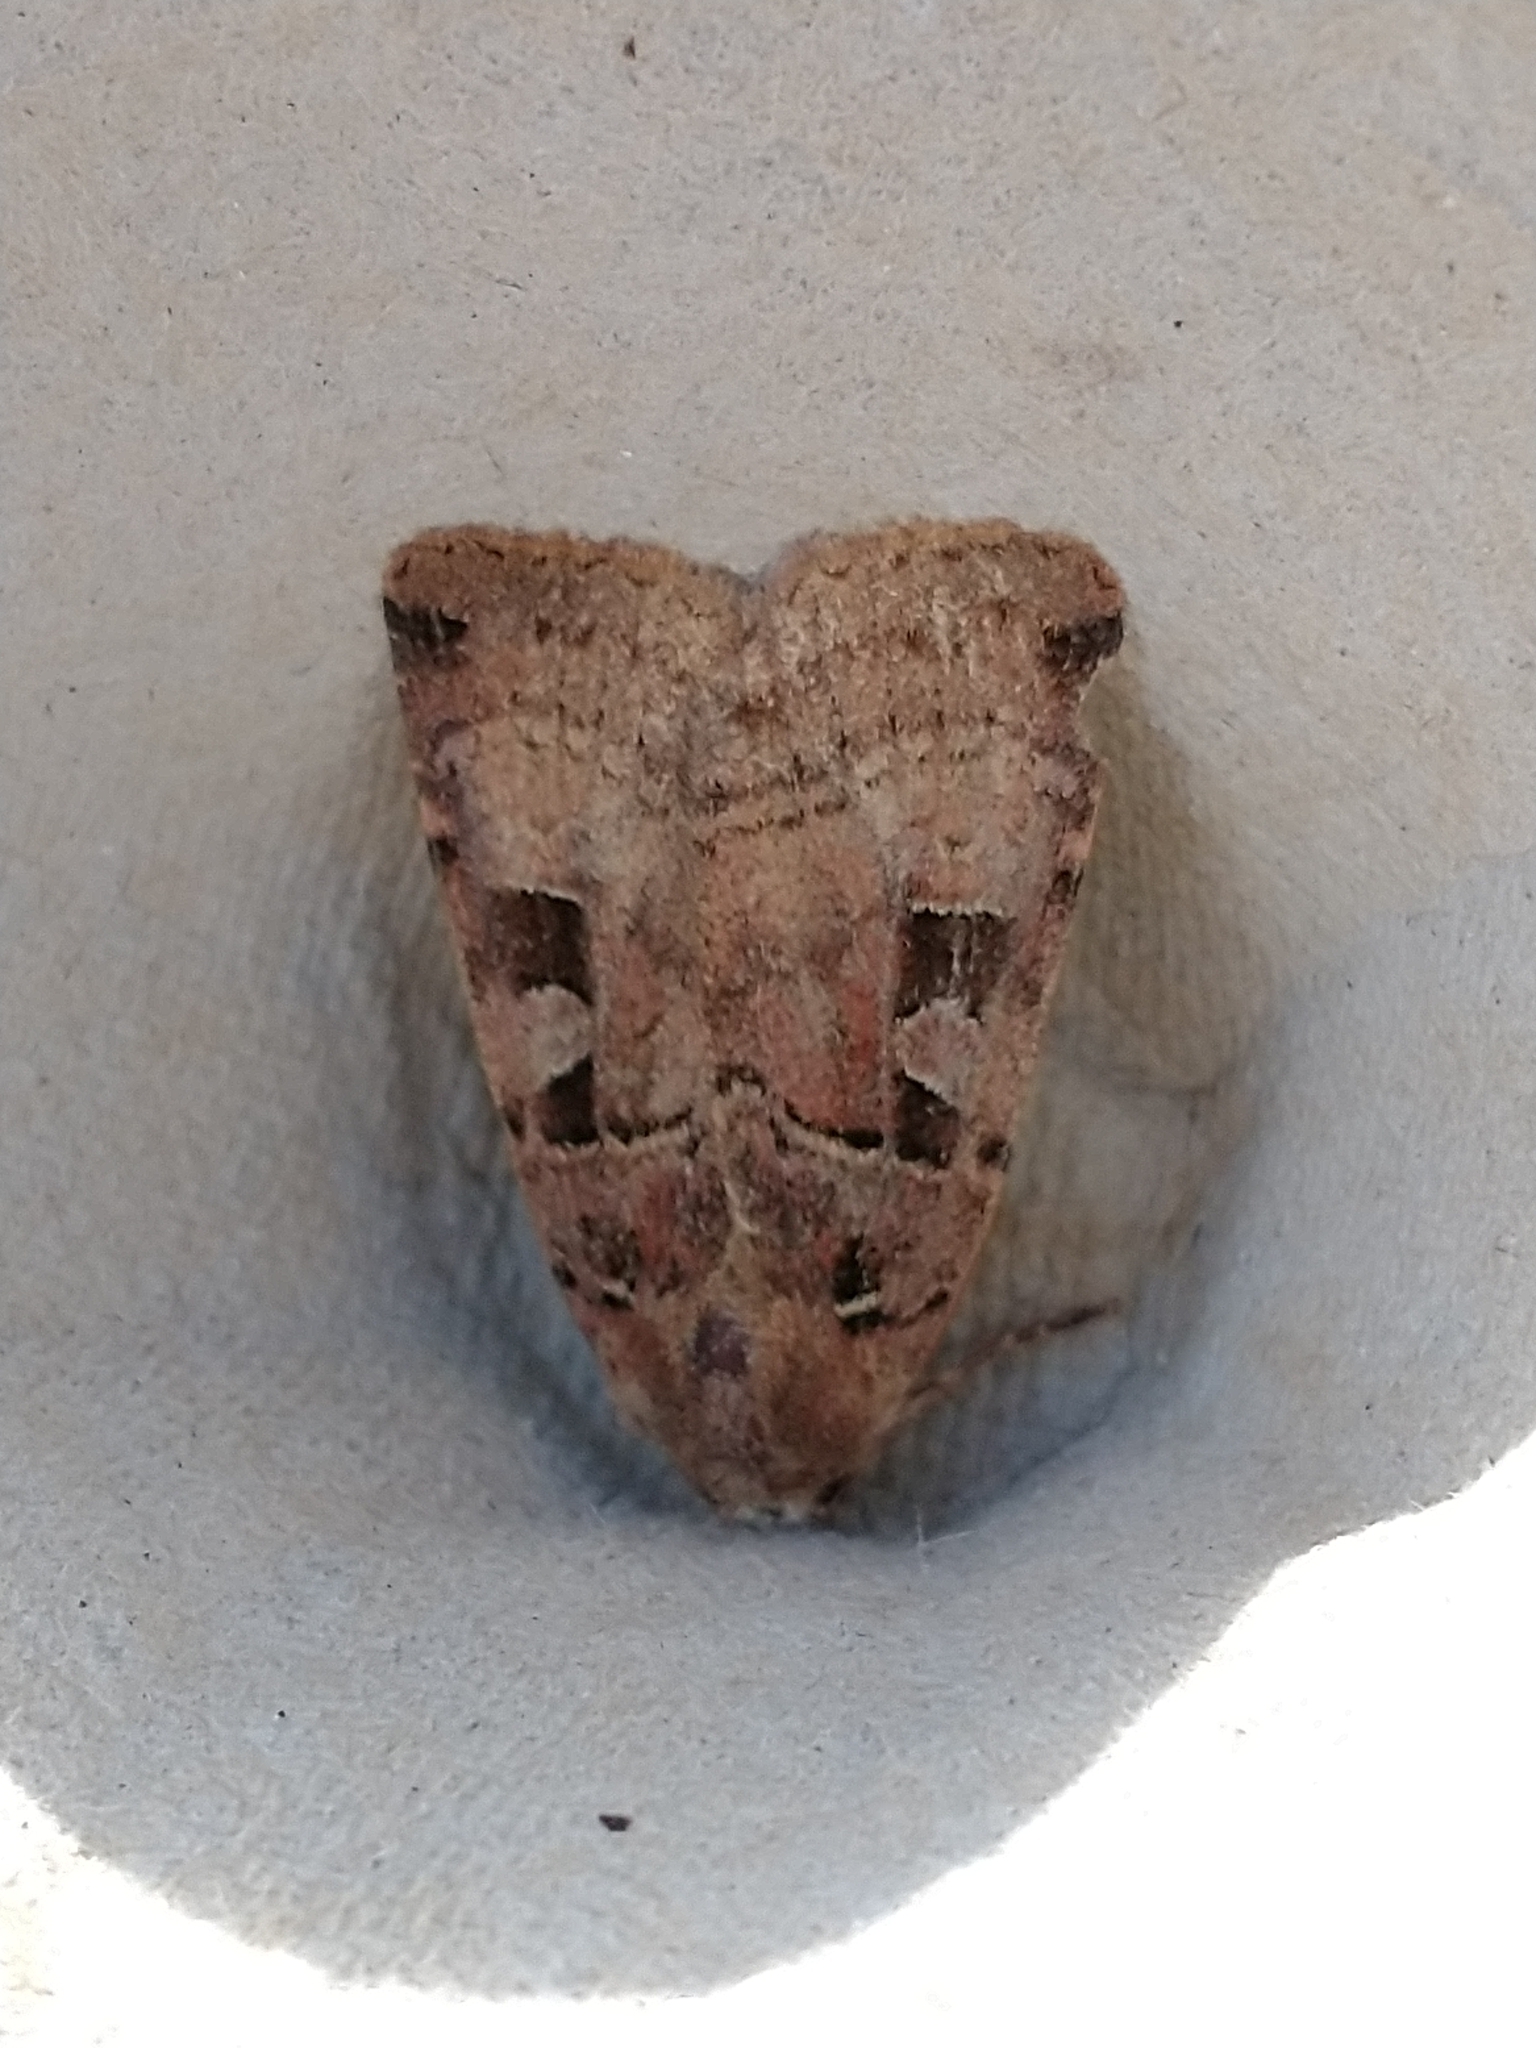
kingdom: Animalia
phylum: Arthropoda
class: Insecta
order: Lepidoptera
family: Noctuidae
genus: Xestia
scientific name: Xestia triangulum
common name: Double square-spot
